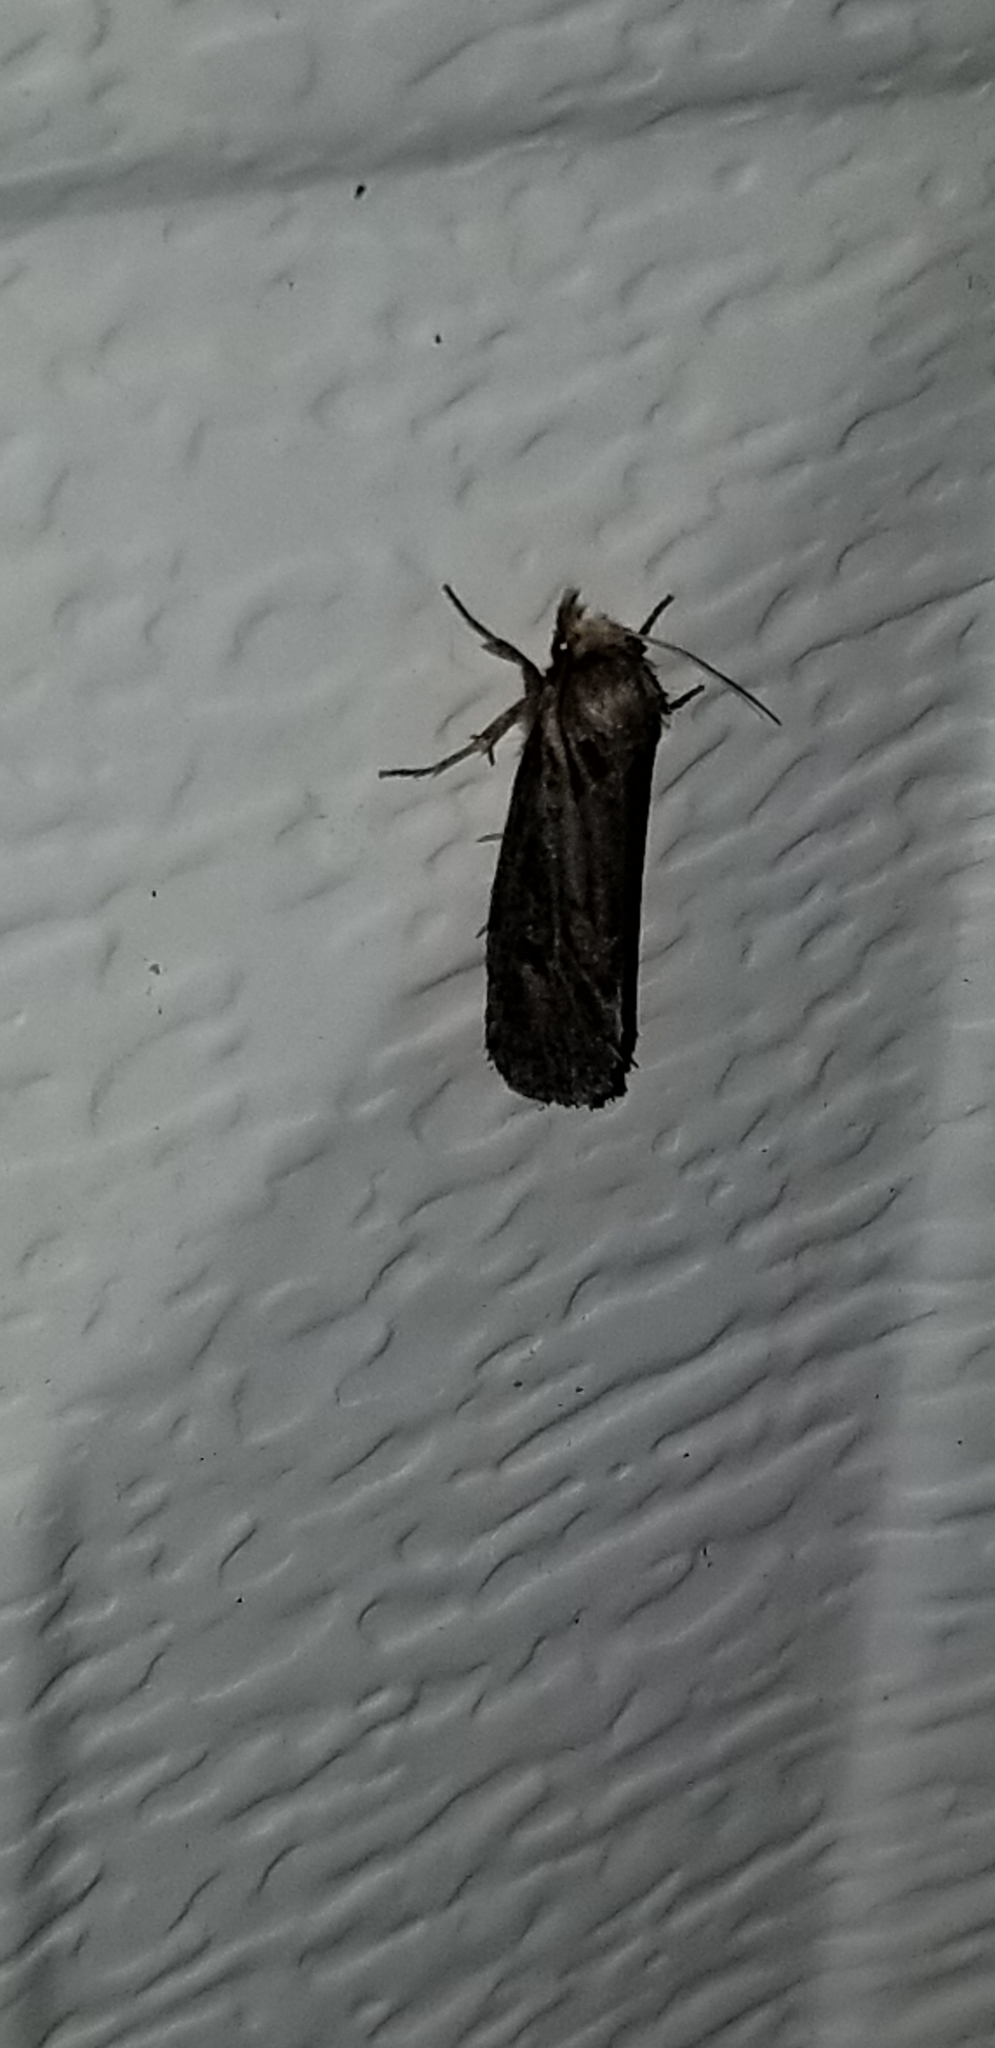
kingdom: Animalia
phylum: Arthropoda
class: Insecta
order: Lepidoptera
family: Tineidae
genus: Acrolophus
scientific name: Acrolophus popeanella
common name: Clemens' grass tubeworm moth
